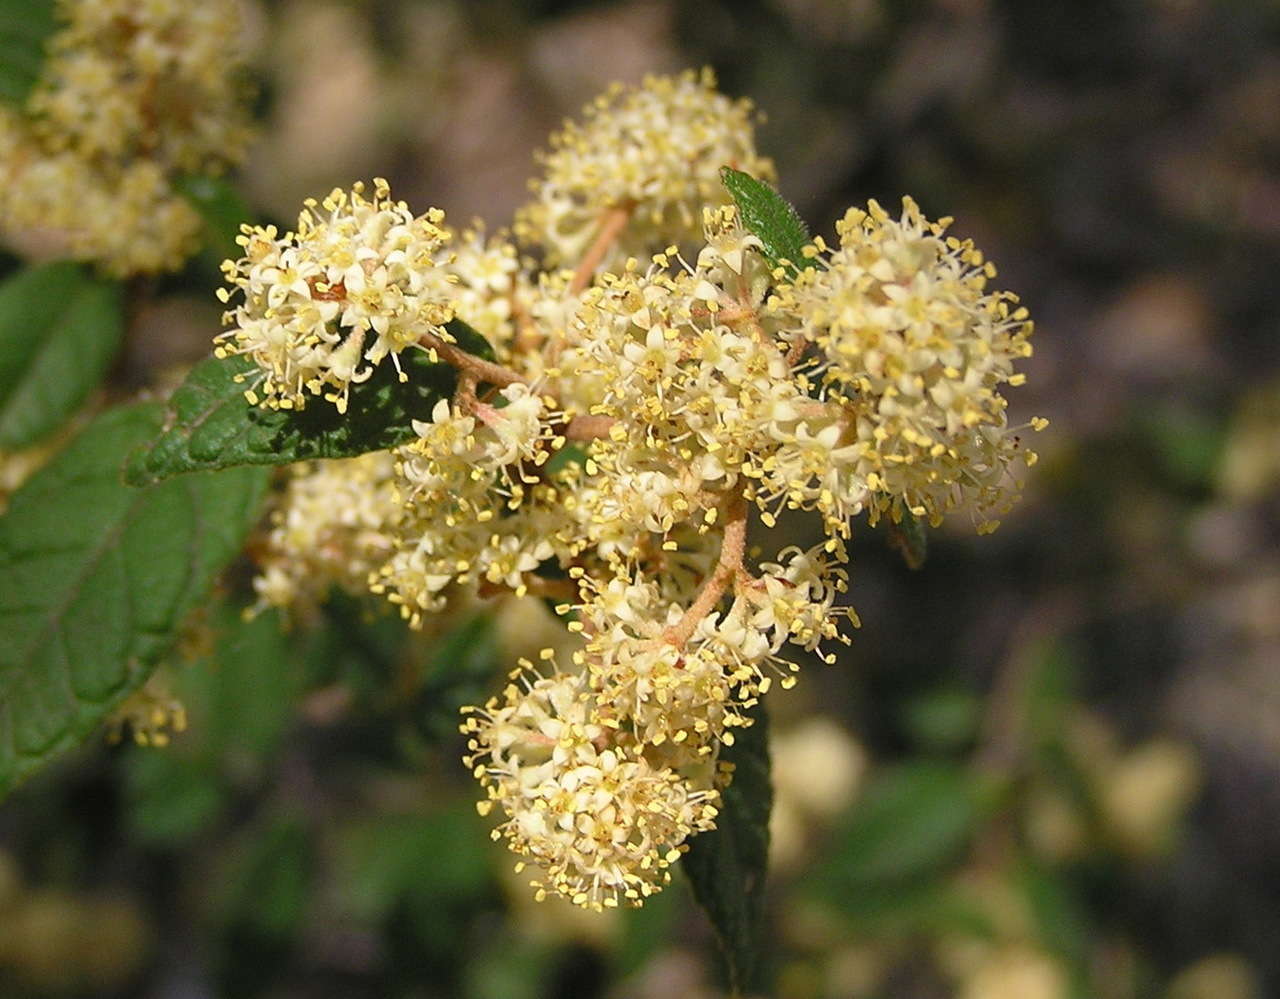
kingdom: Plantae
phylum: Tracheophyta
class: Magnoliopsida
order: Rosales
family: Rhamnaceae
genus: Pomaderris
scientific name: Pomaderris prunifolia
